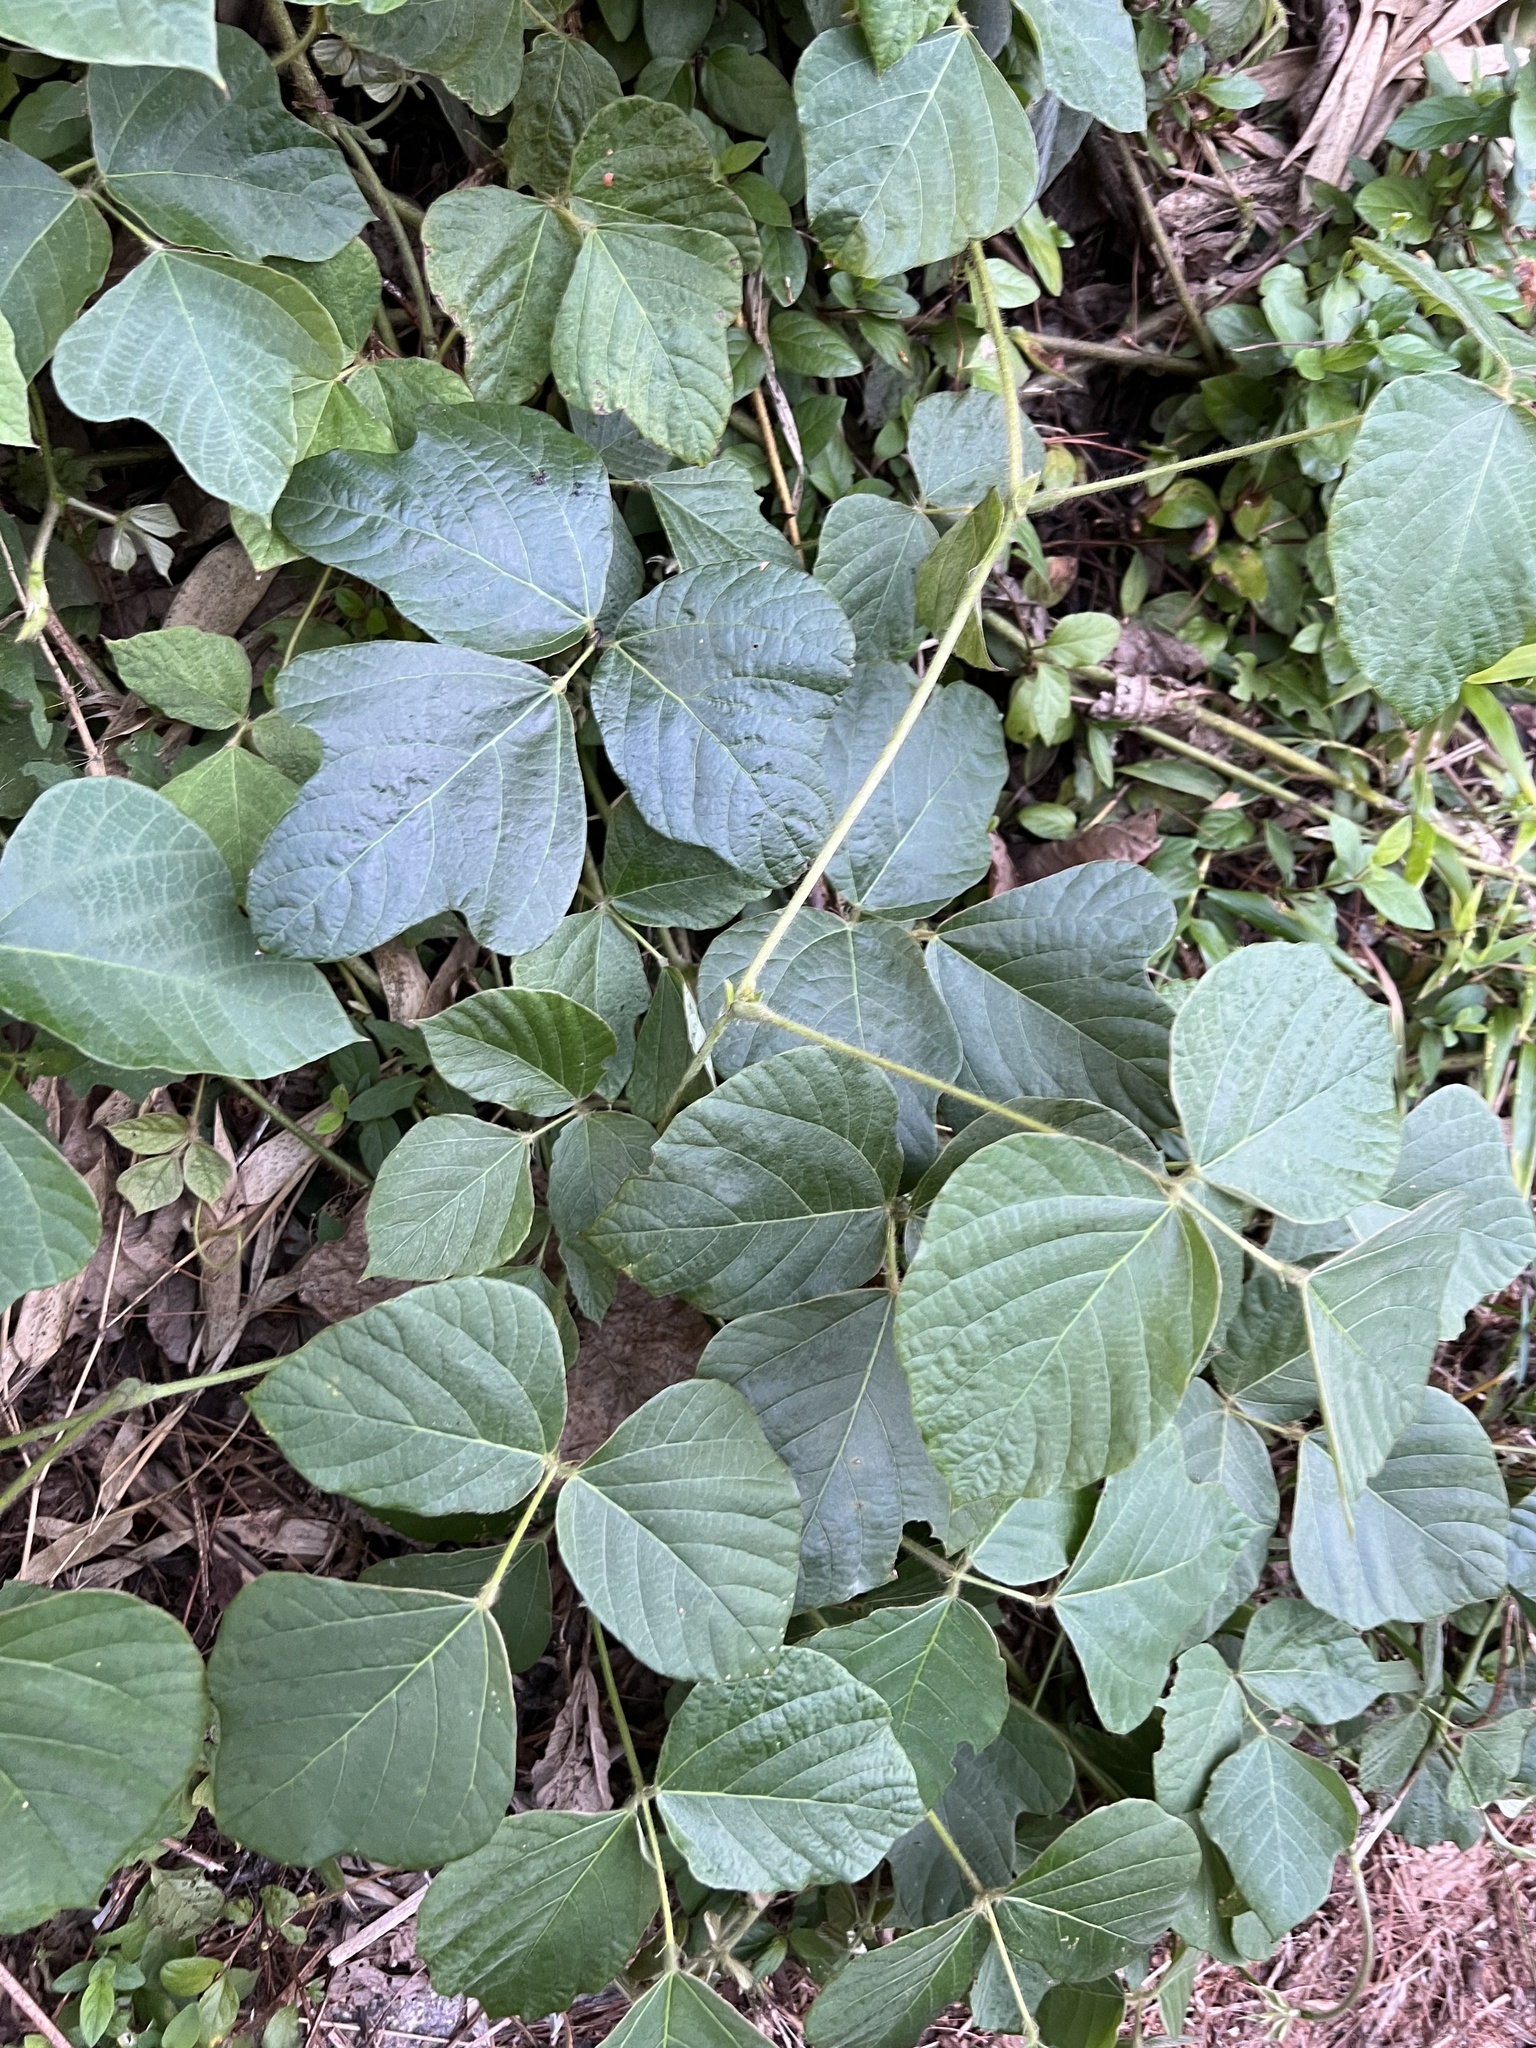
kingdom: Plantae
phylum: Tracheophyta
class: Magnoliopsida
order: Fabales
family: Fabaceae
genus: Pueraria
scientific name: Pueraria montana
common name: Kudzu
